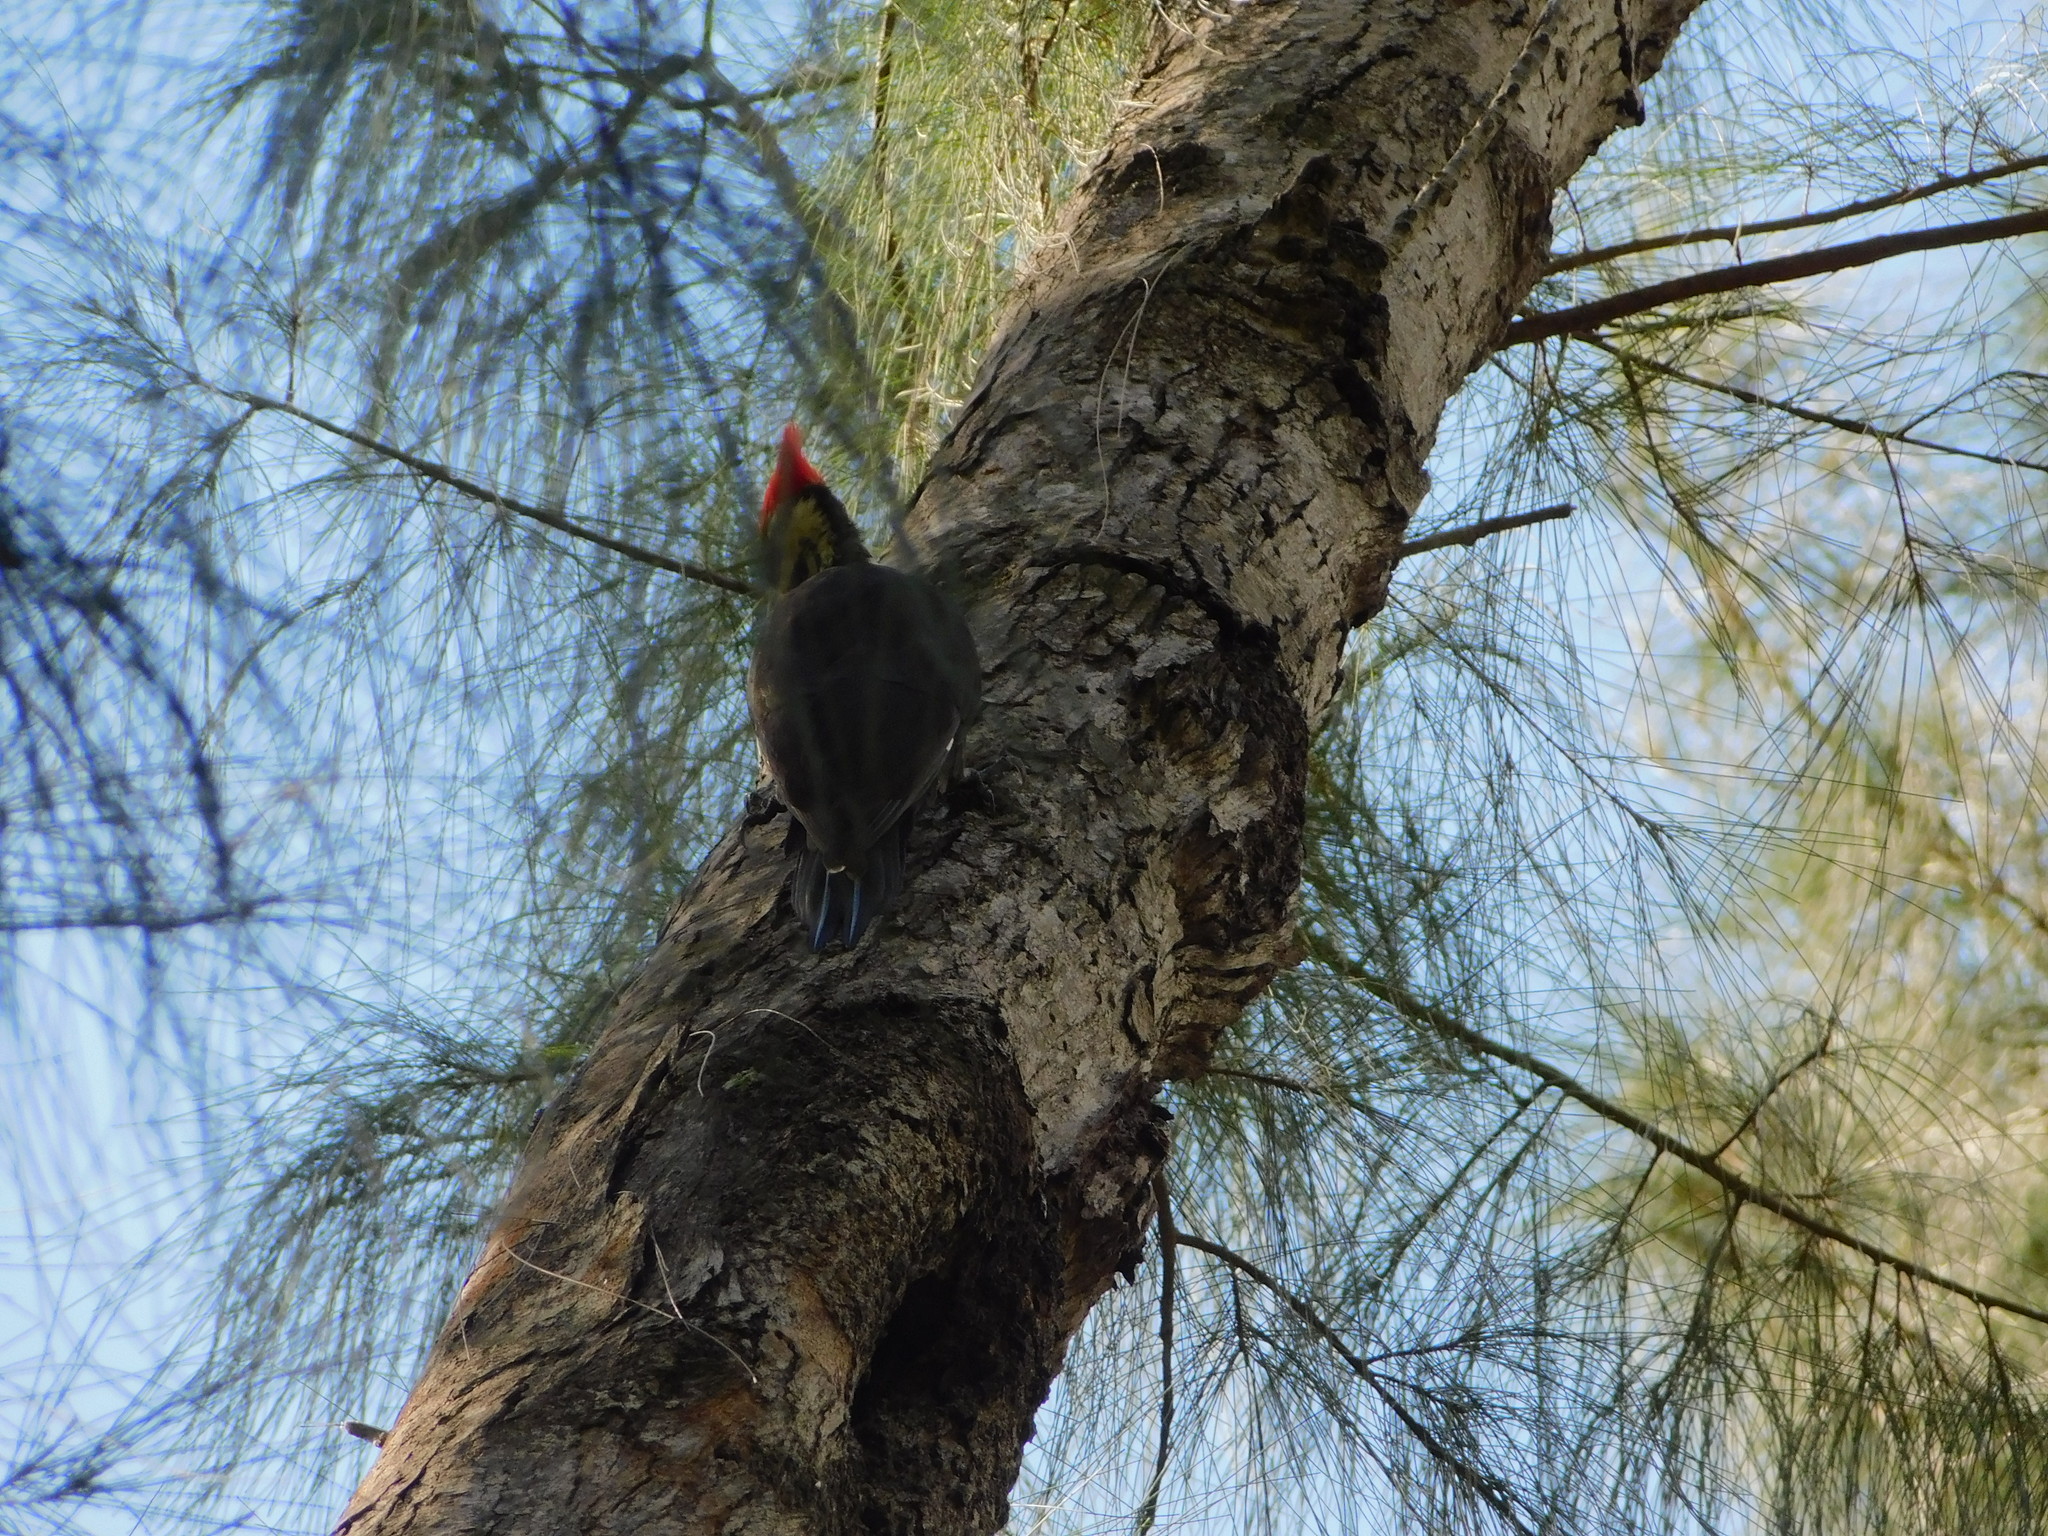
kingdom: Animalia
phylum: Chordata
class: Aves
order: Piciformes
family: Picidae
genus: Dryocopus
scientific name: Dryocopus pileatus
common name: Pileated woodpecker
